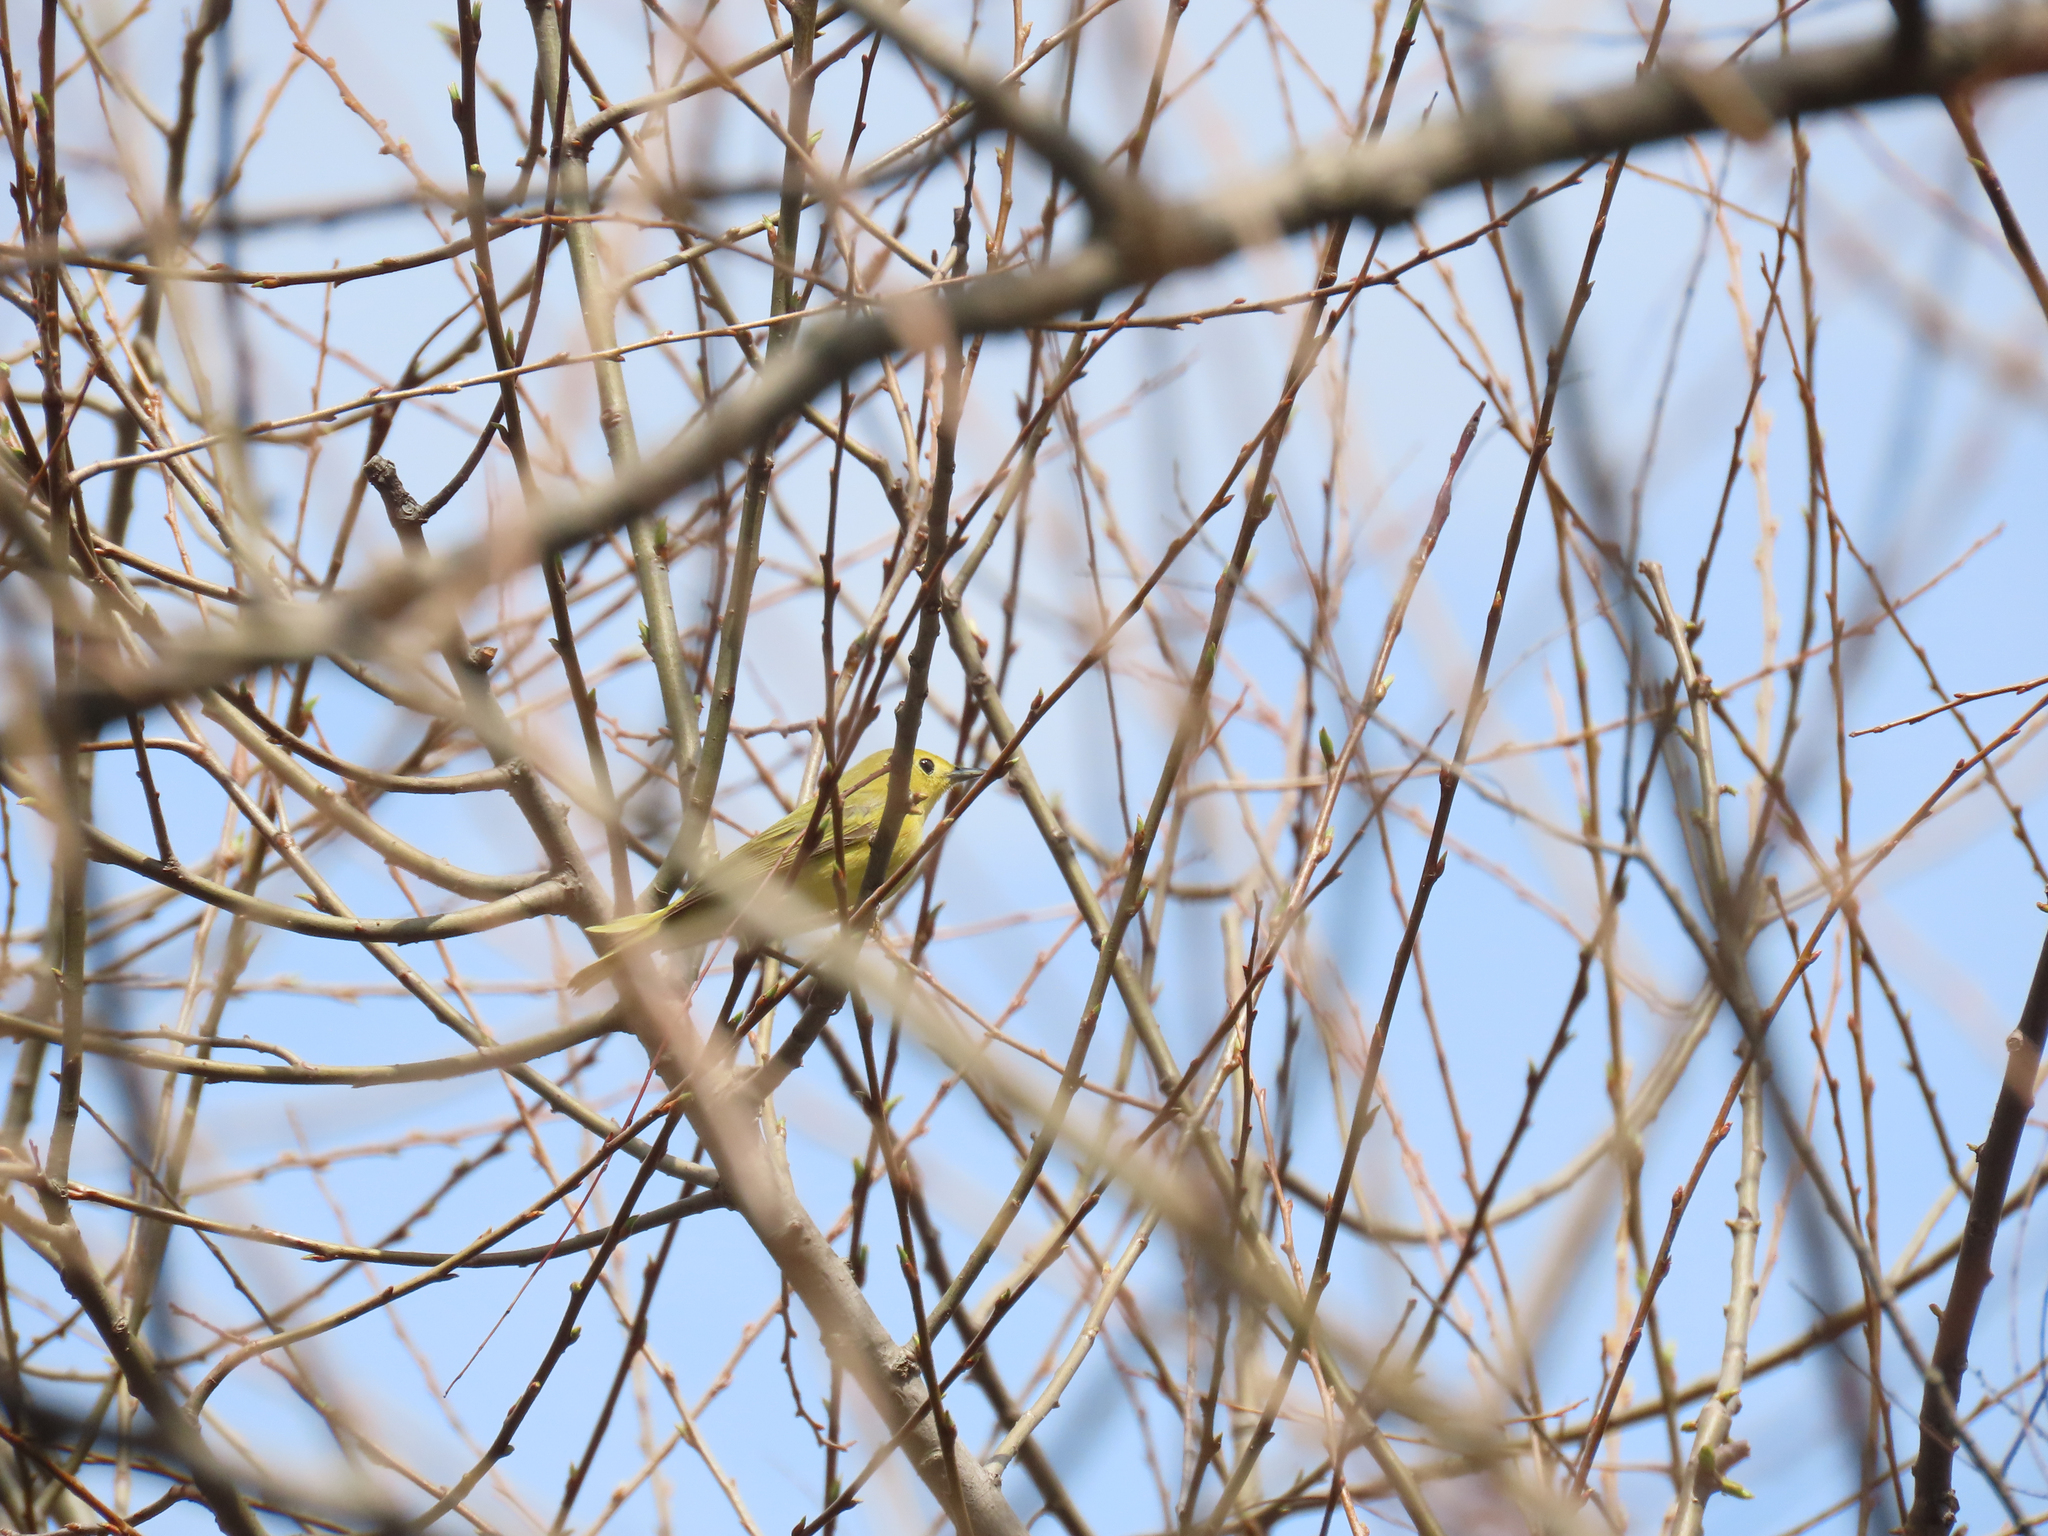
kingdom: Animalia
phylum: Chordata
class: Aves
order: Passeriformes
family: Parulidae
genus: Setophaga
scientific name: Setophaga petechia
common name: Yellow warbler
